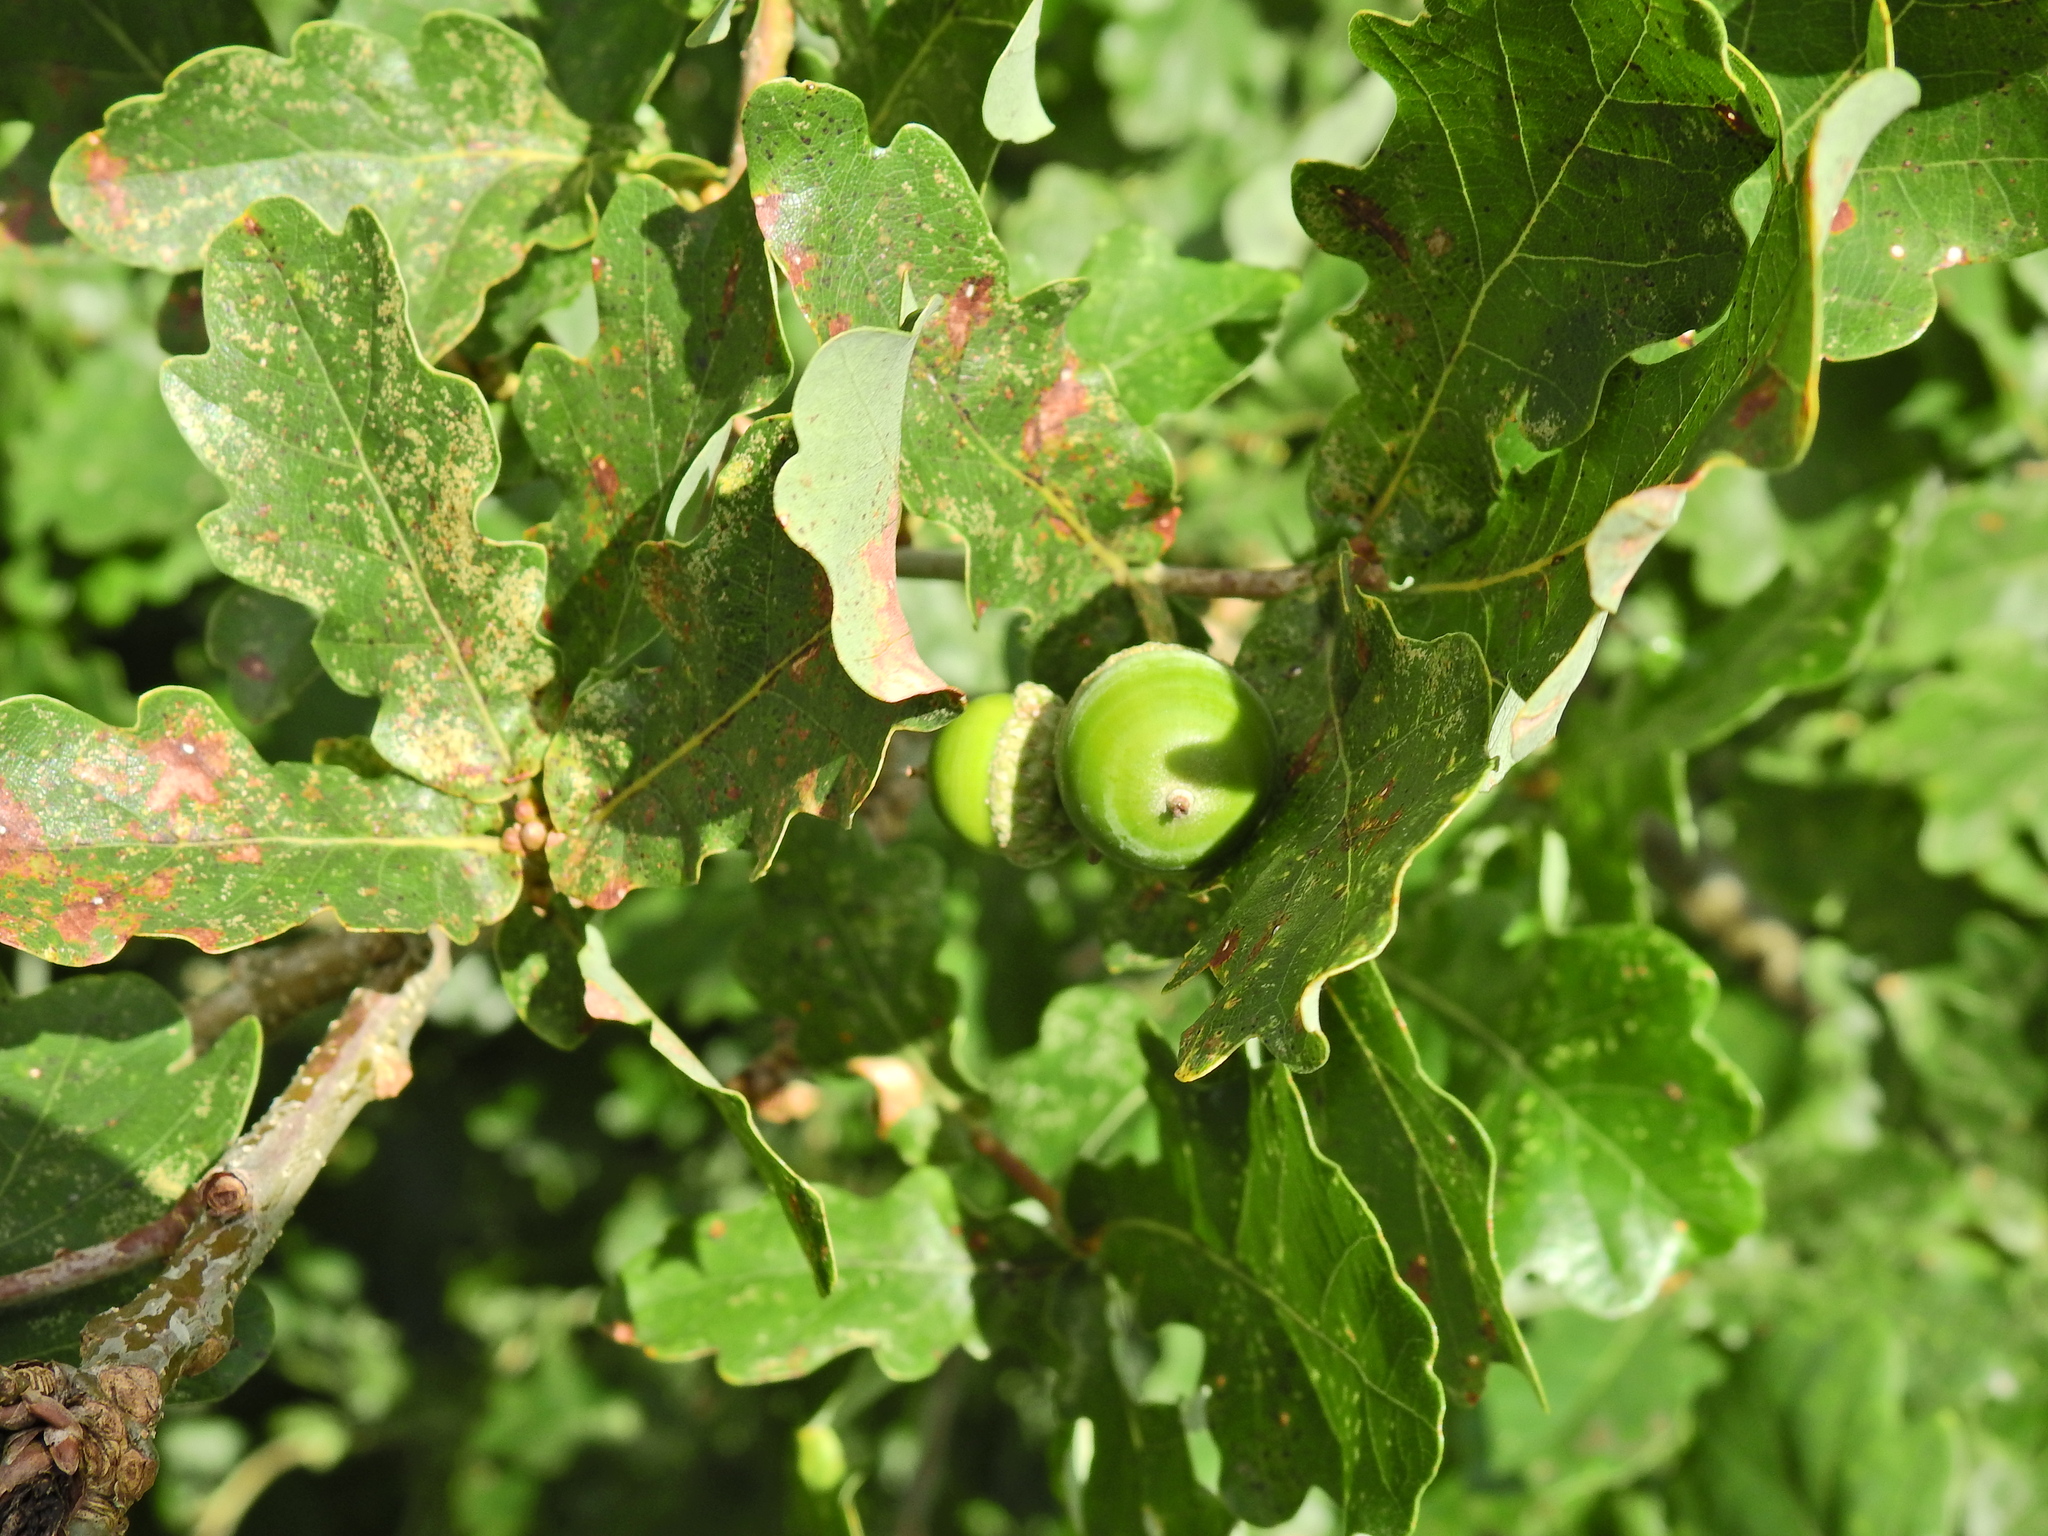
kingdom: Plantae
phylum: Tracheophyta
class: Magnoliopsida
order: Fagales
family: Fagaceae
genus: Quercus
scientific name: Quercus robur
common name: Pedunculate oak
